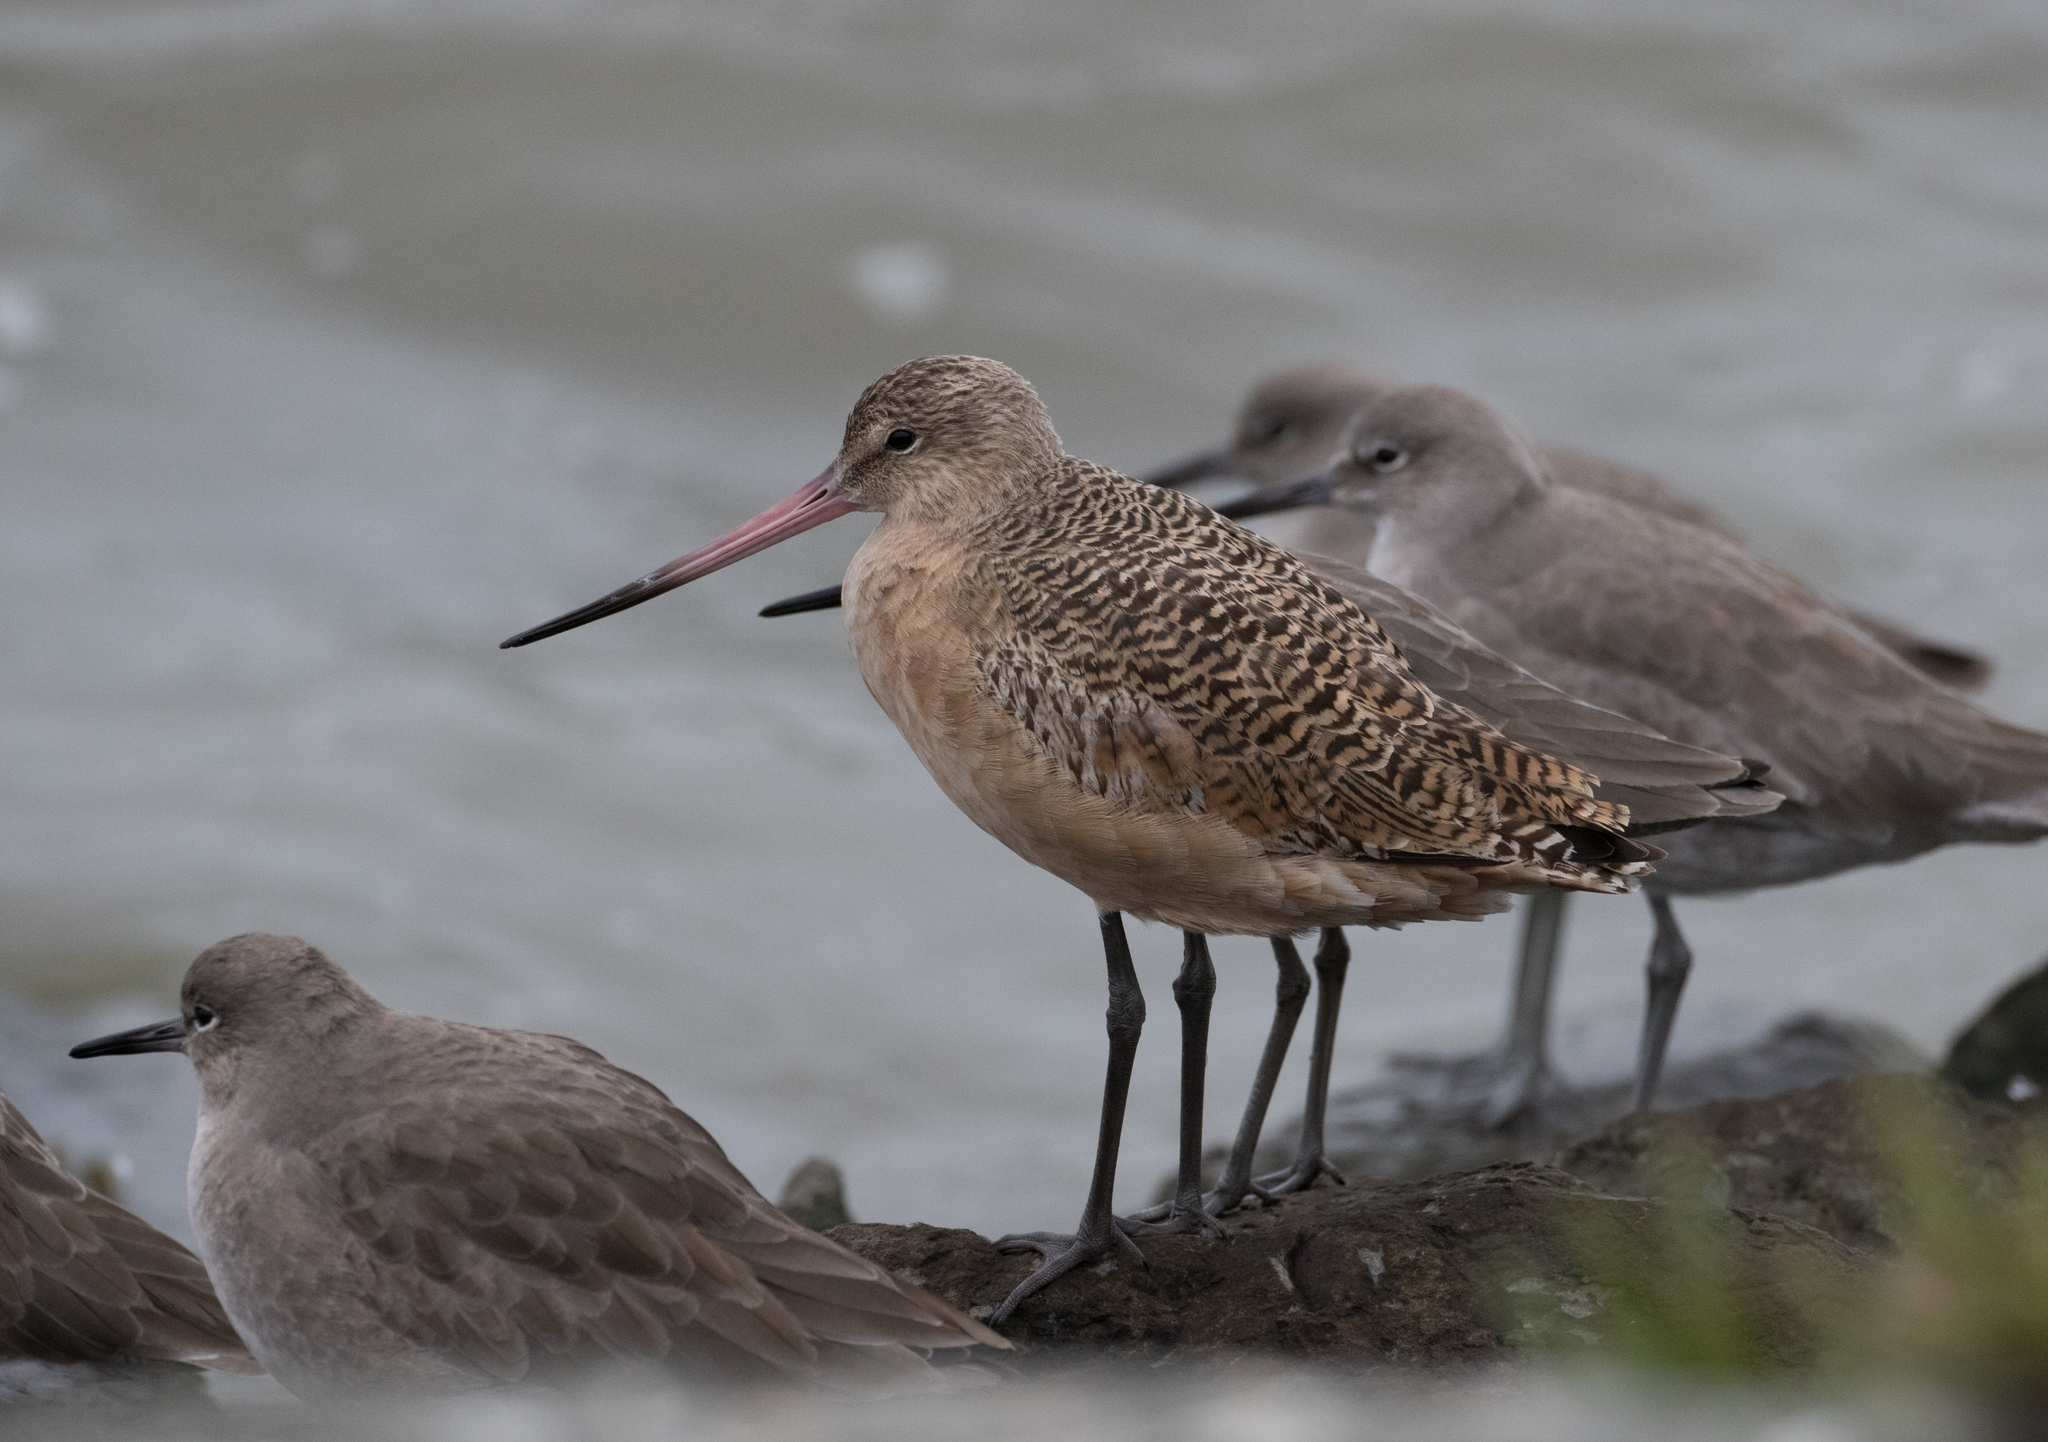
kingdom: Animalia
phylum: Chordata
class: Aves
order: Charadriiformes
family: Scolopacidae
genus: Limosa
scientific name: Limosa fedoa
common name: Marbled godwit
